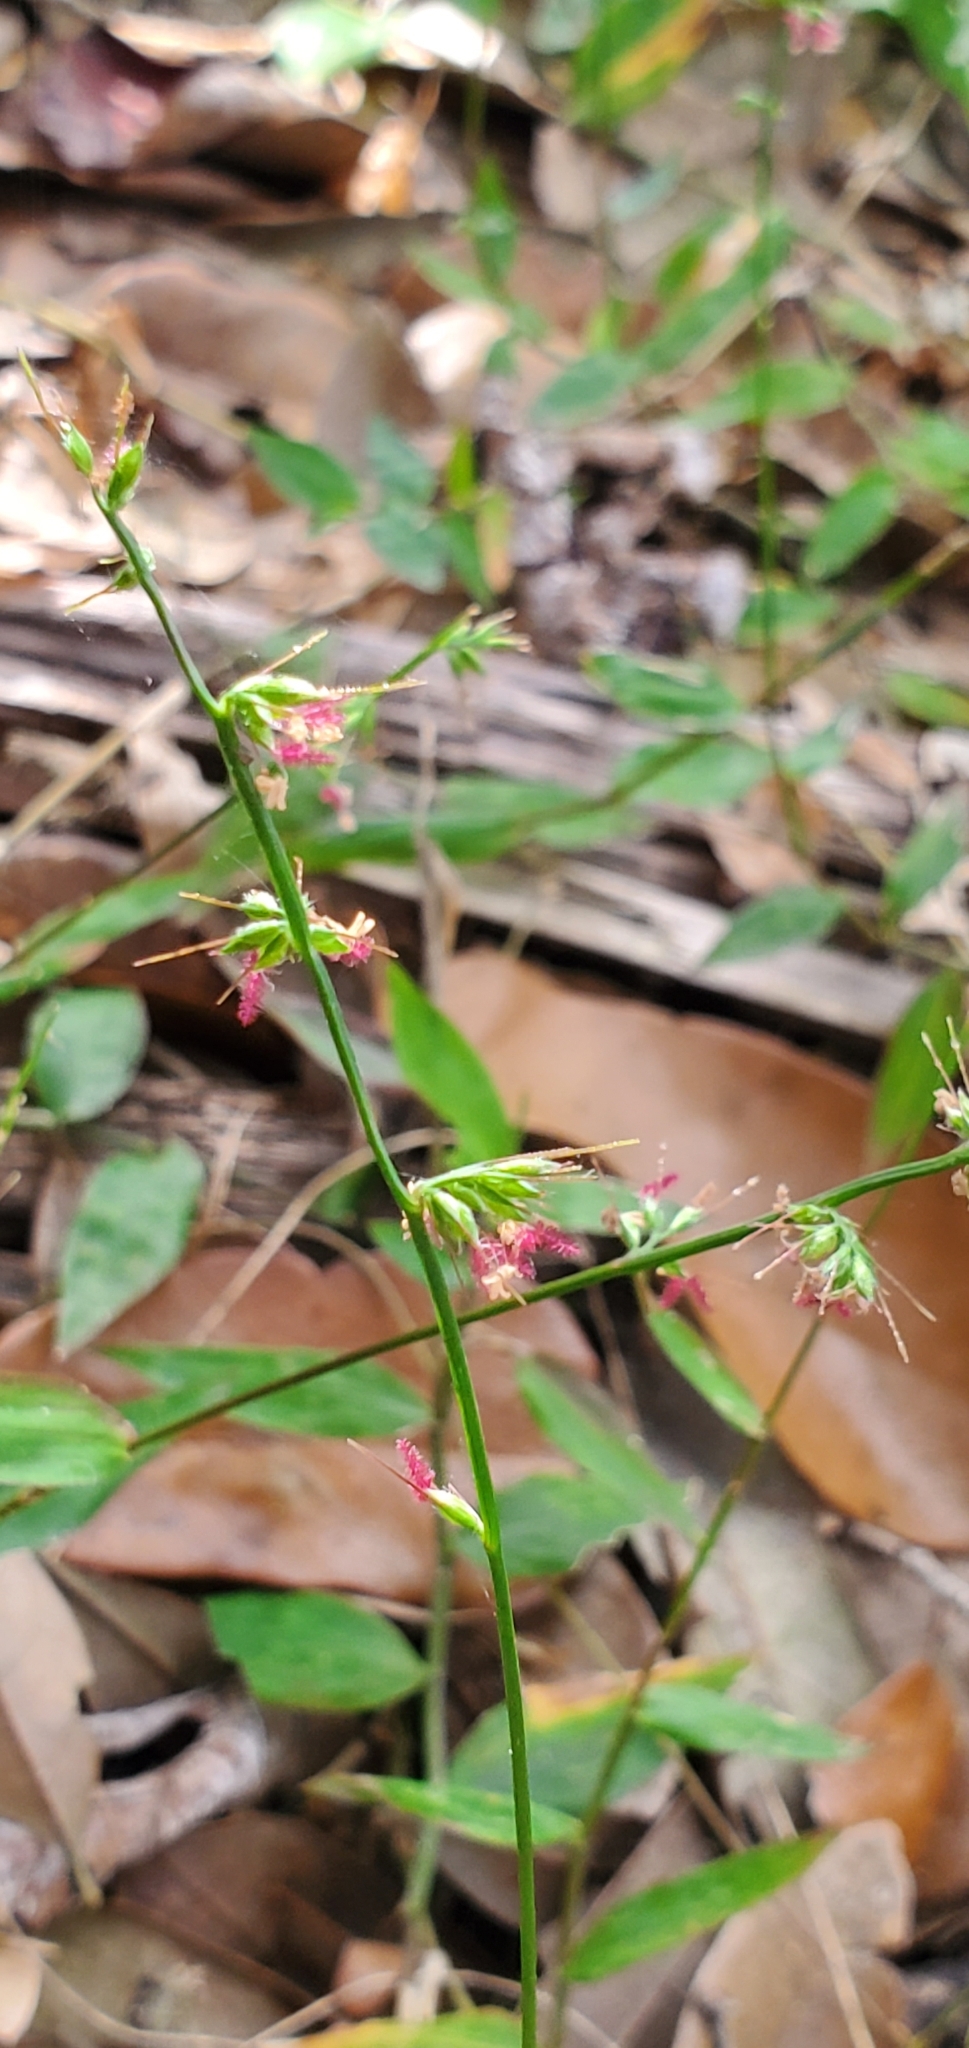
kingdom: Plantae
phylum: Tracheophyta
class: Liliopsida
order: Poales
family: Poaceae
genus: Oplismenus
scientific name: Oplismenus hirtellus
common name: Basketgrass
